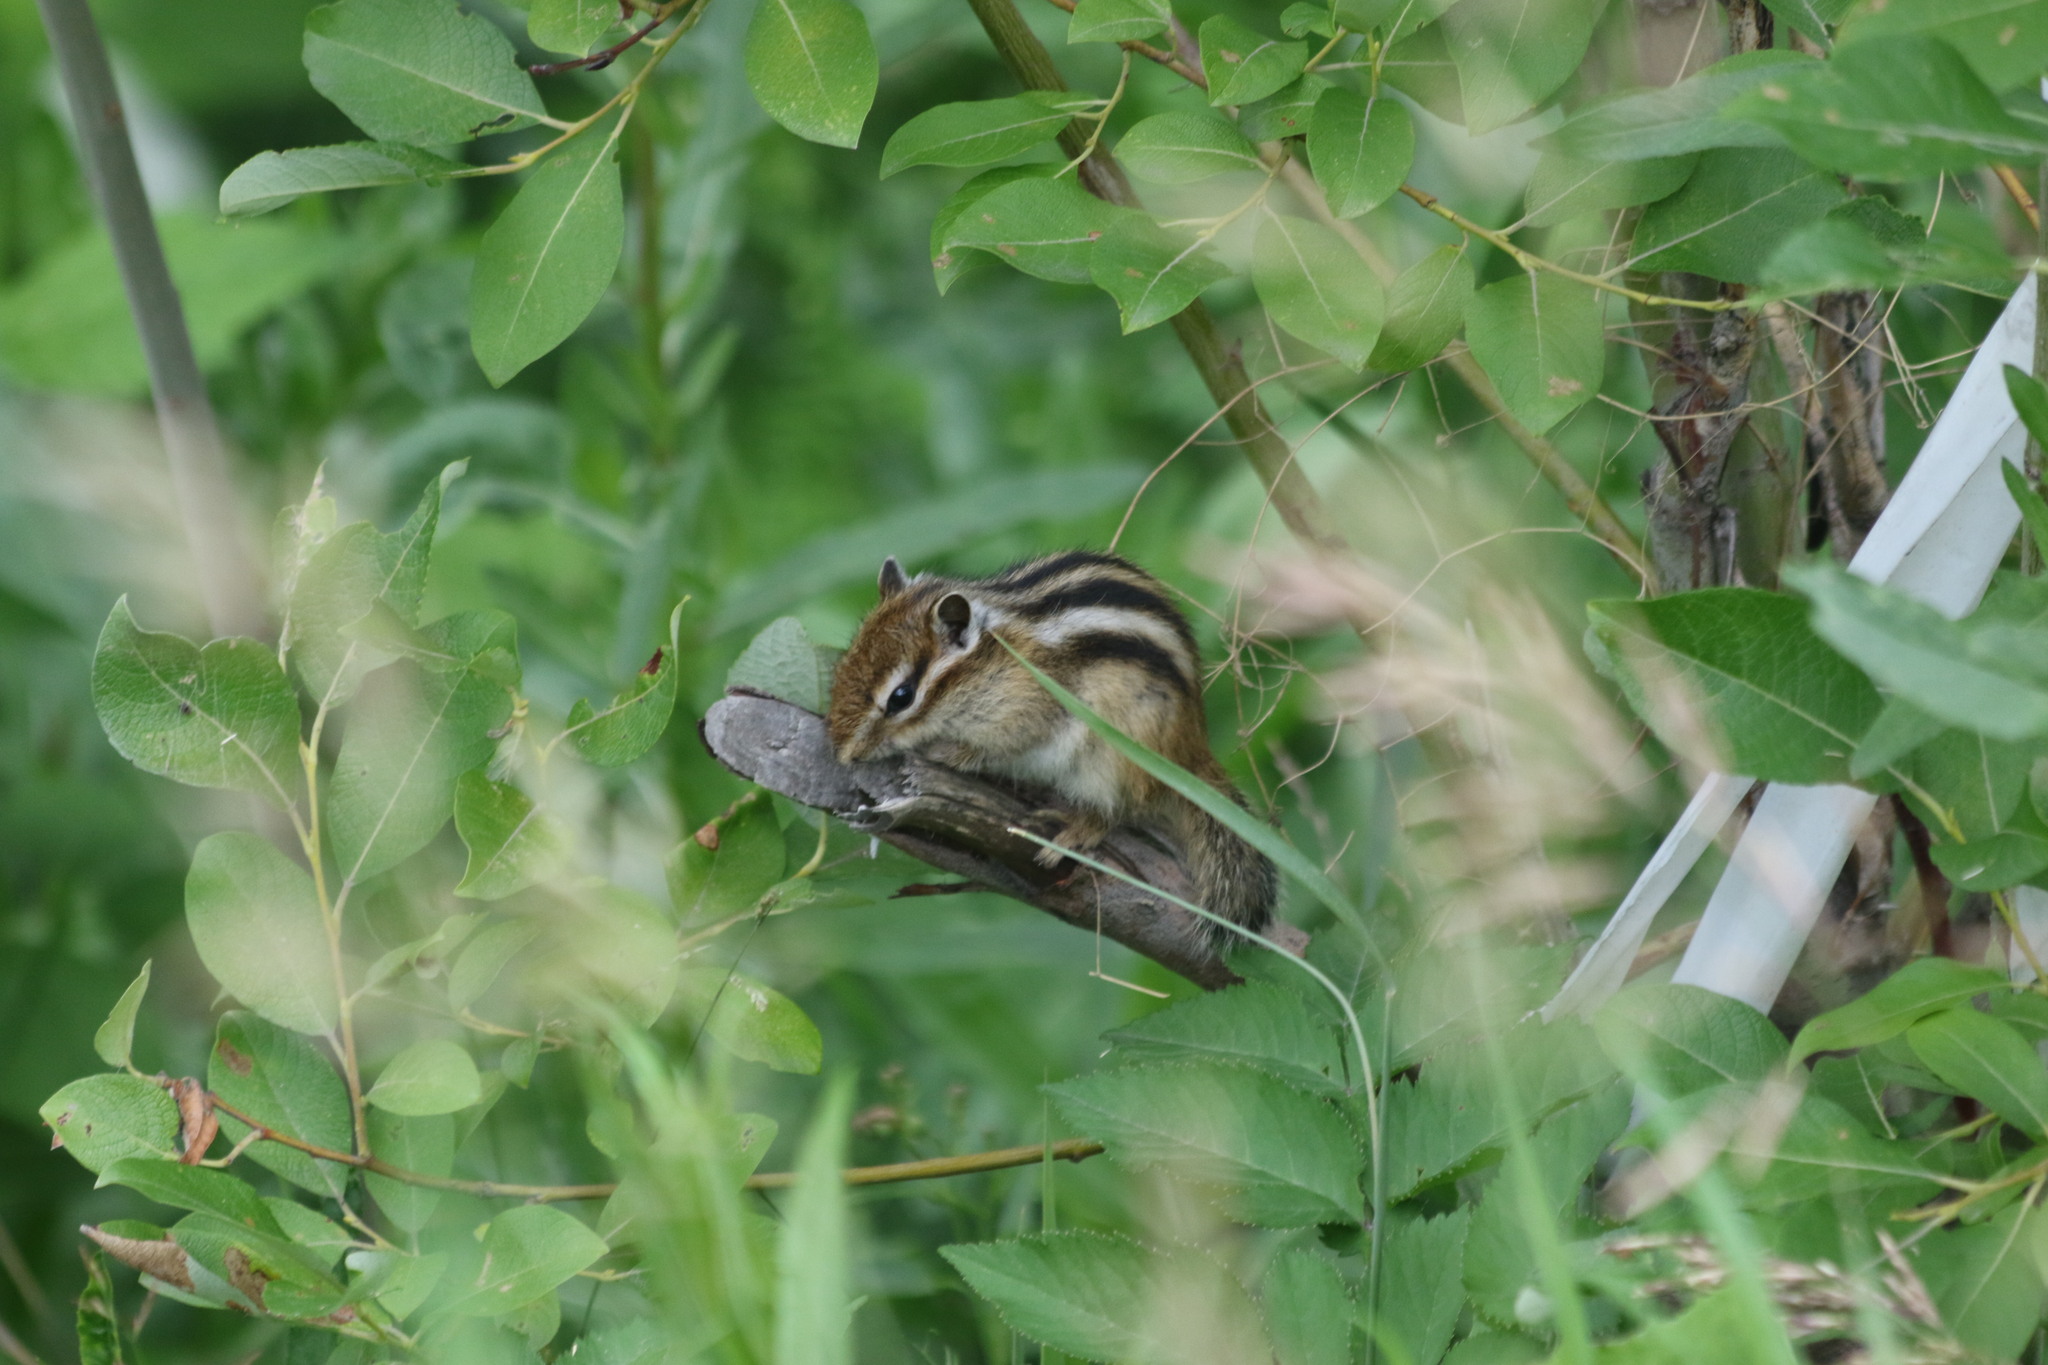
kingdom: Animalia
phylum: Chordata
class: Mammalia
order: Rodentia
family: Sciuridae
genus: Tamias
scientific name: Tamias sibiricus
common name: Siberian chipmunk
